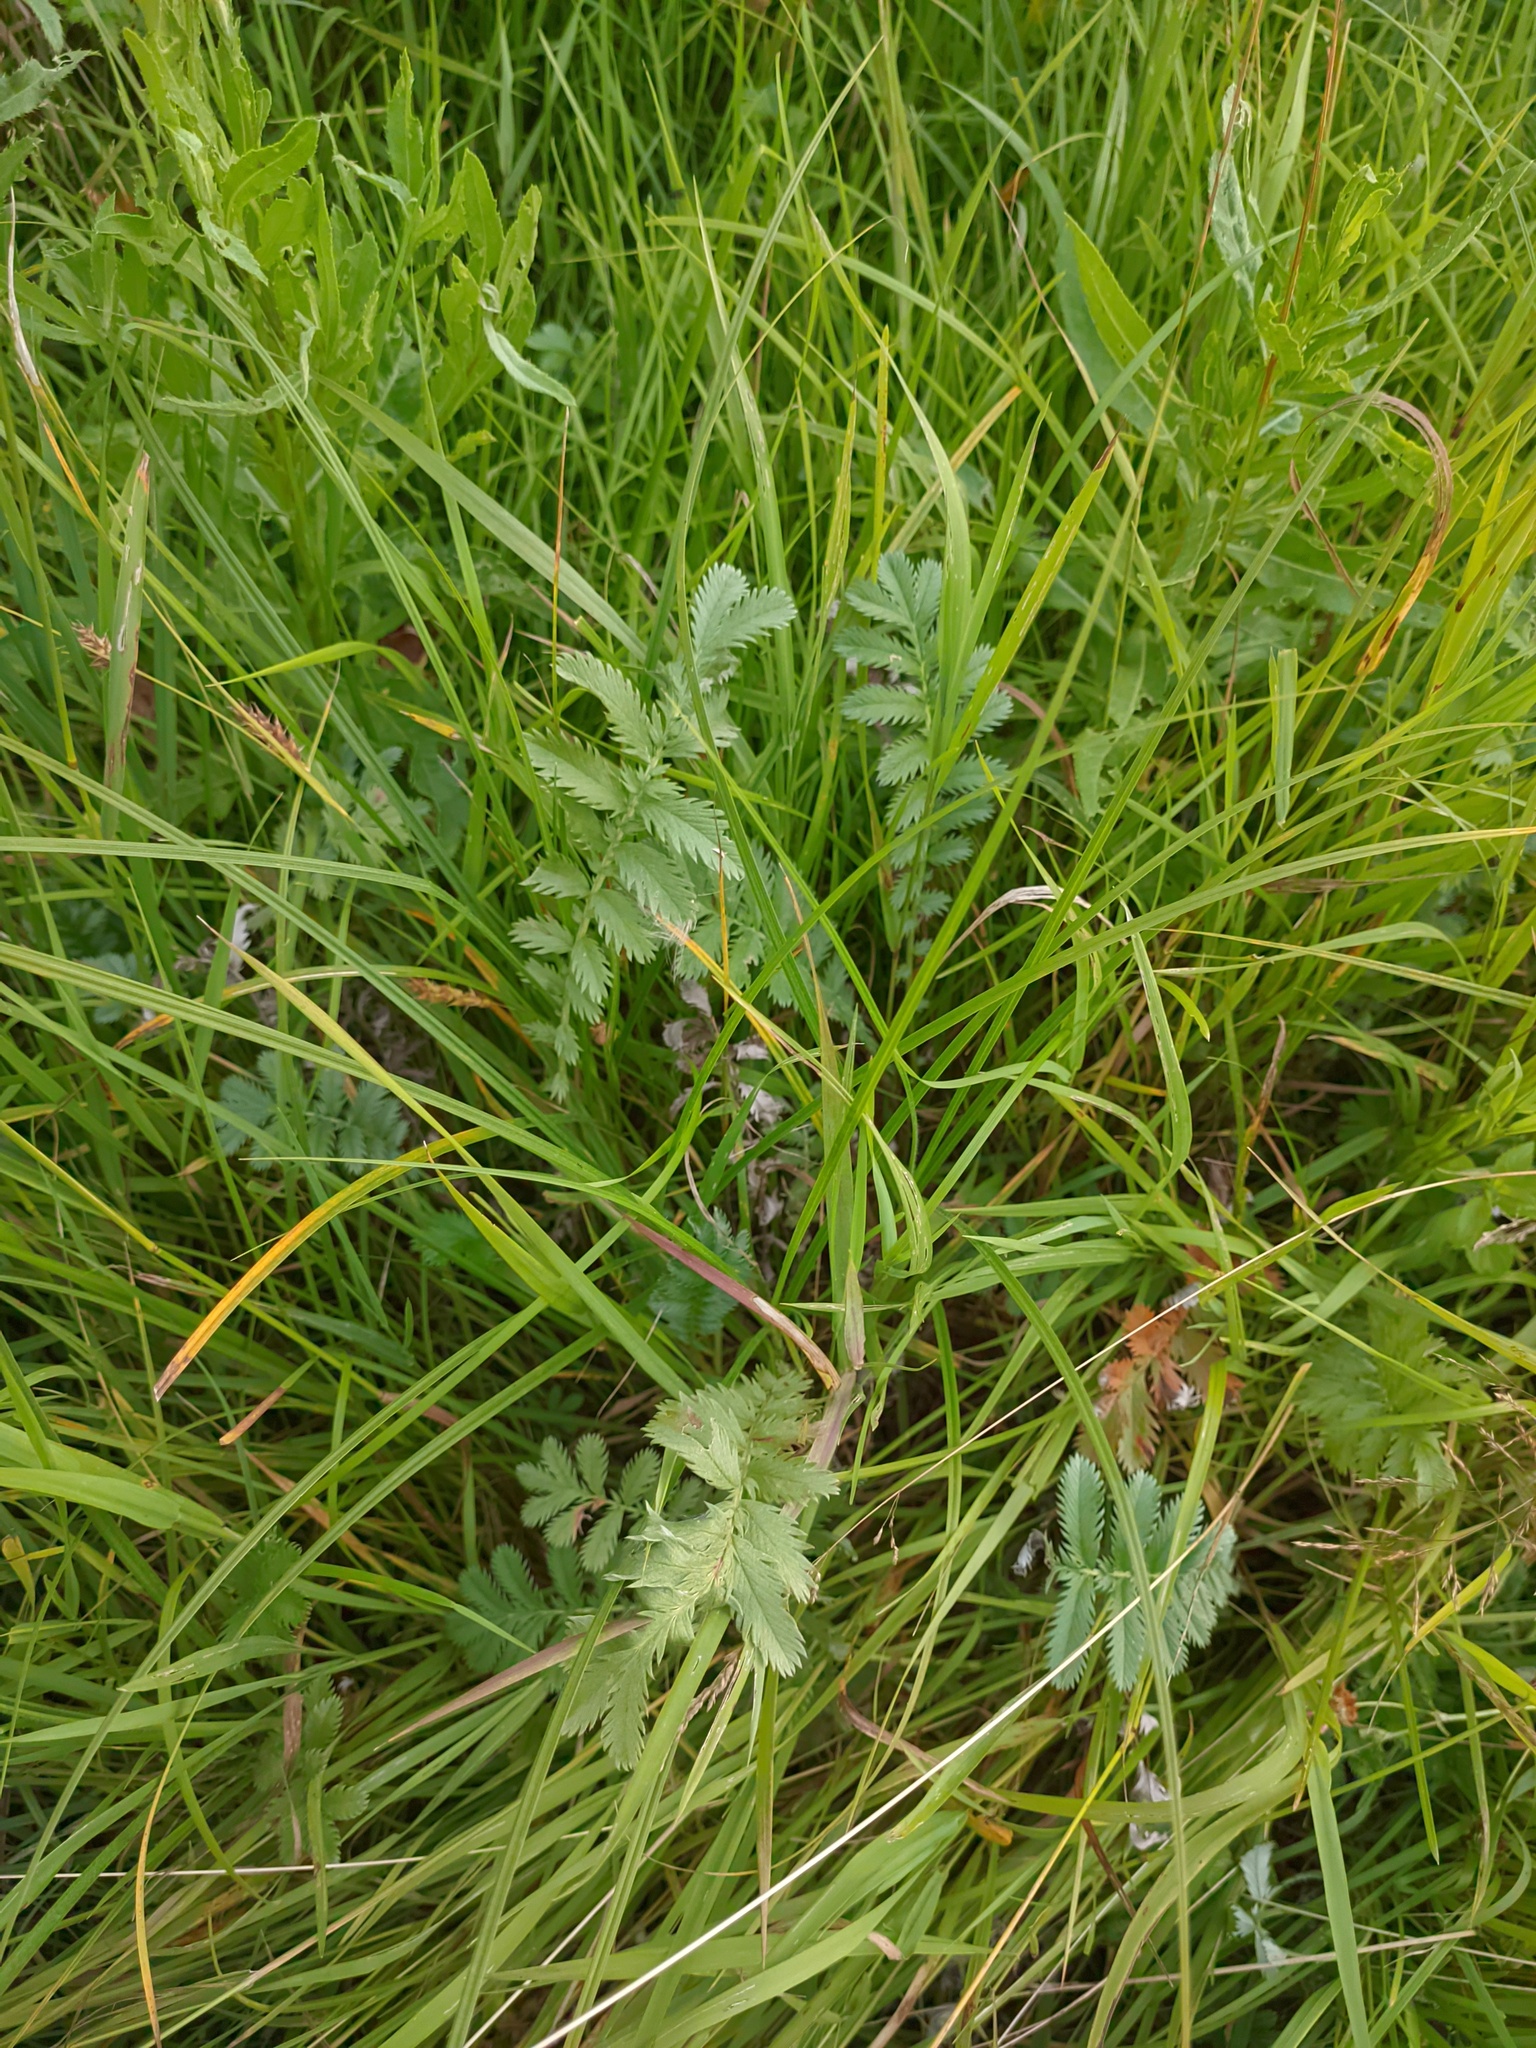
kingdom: Plantae
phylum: Tracheophyta
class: Magnoliopsida
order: Rosales
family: Rosaceae
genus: Argentina
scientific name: Argentina anserina
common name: Common silverweed
